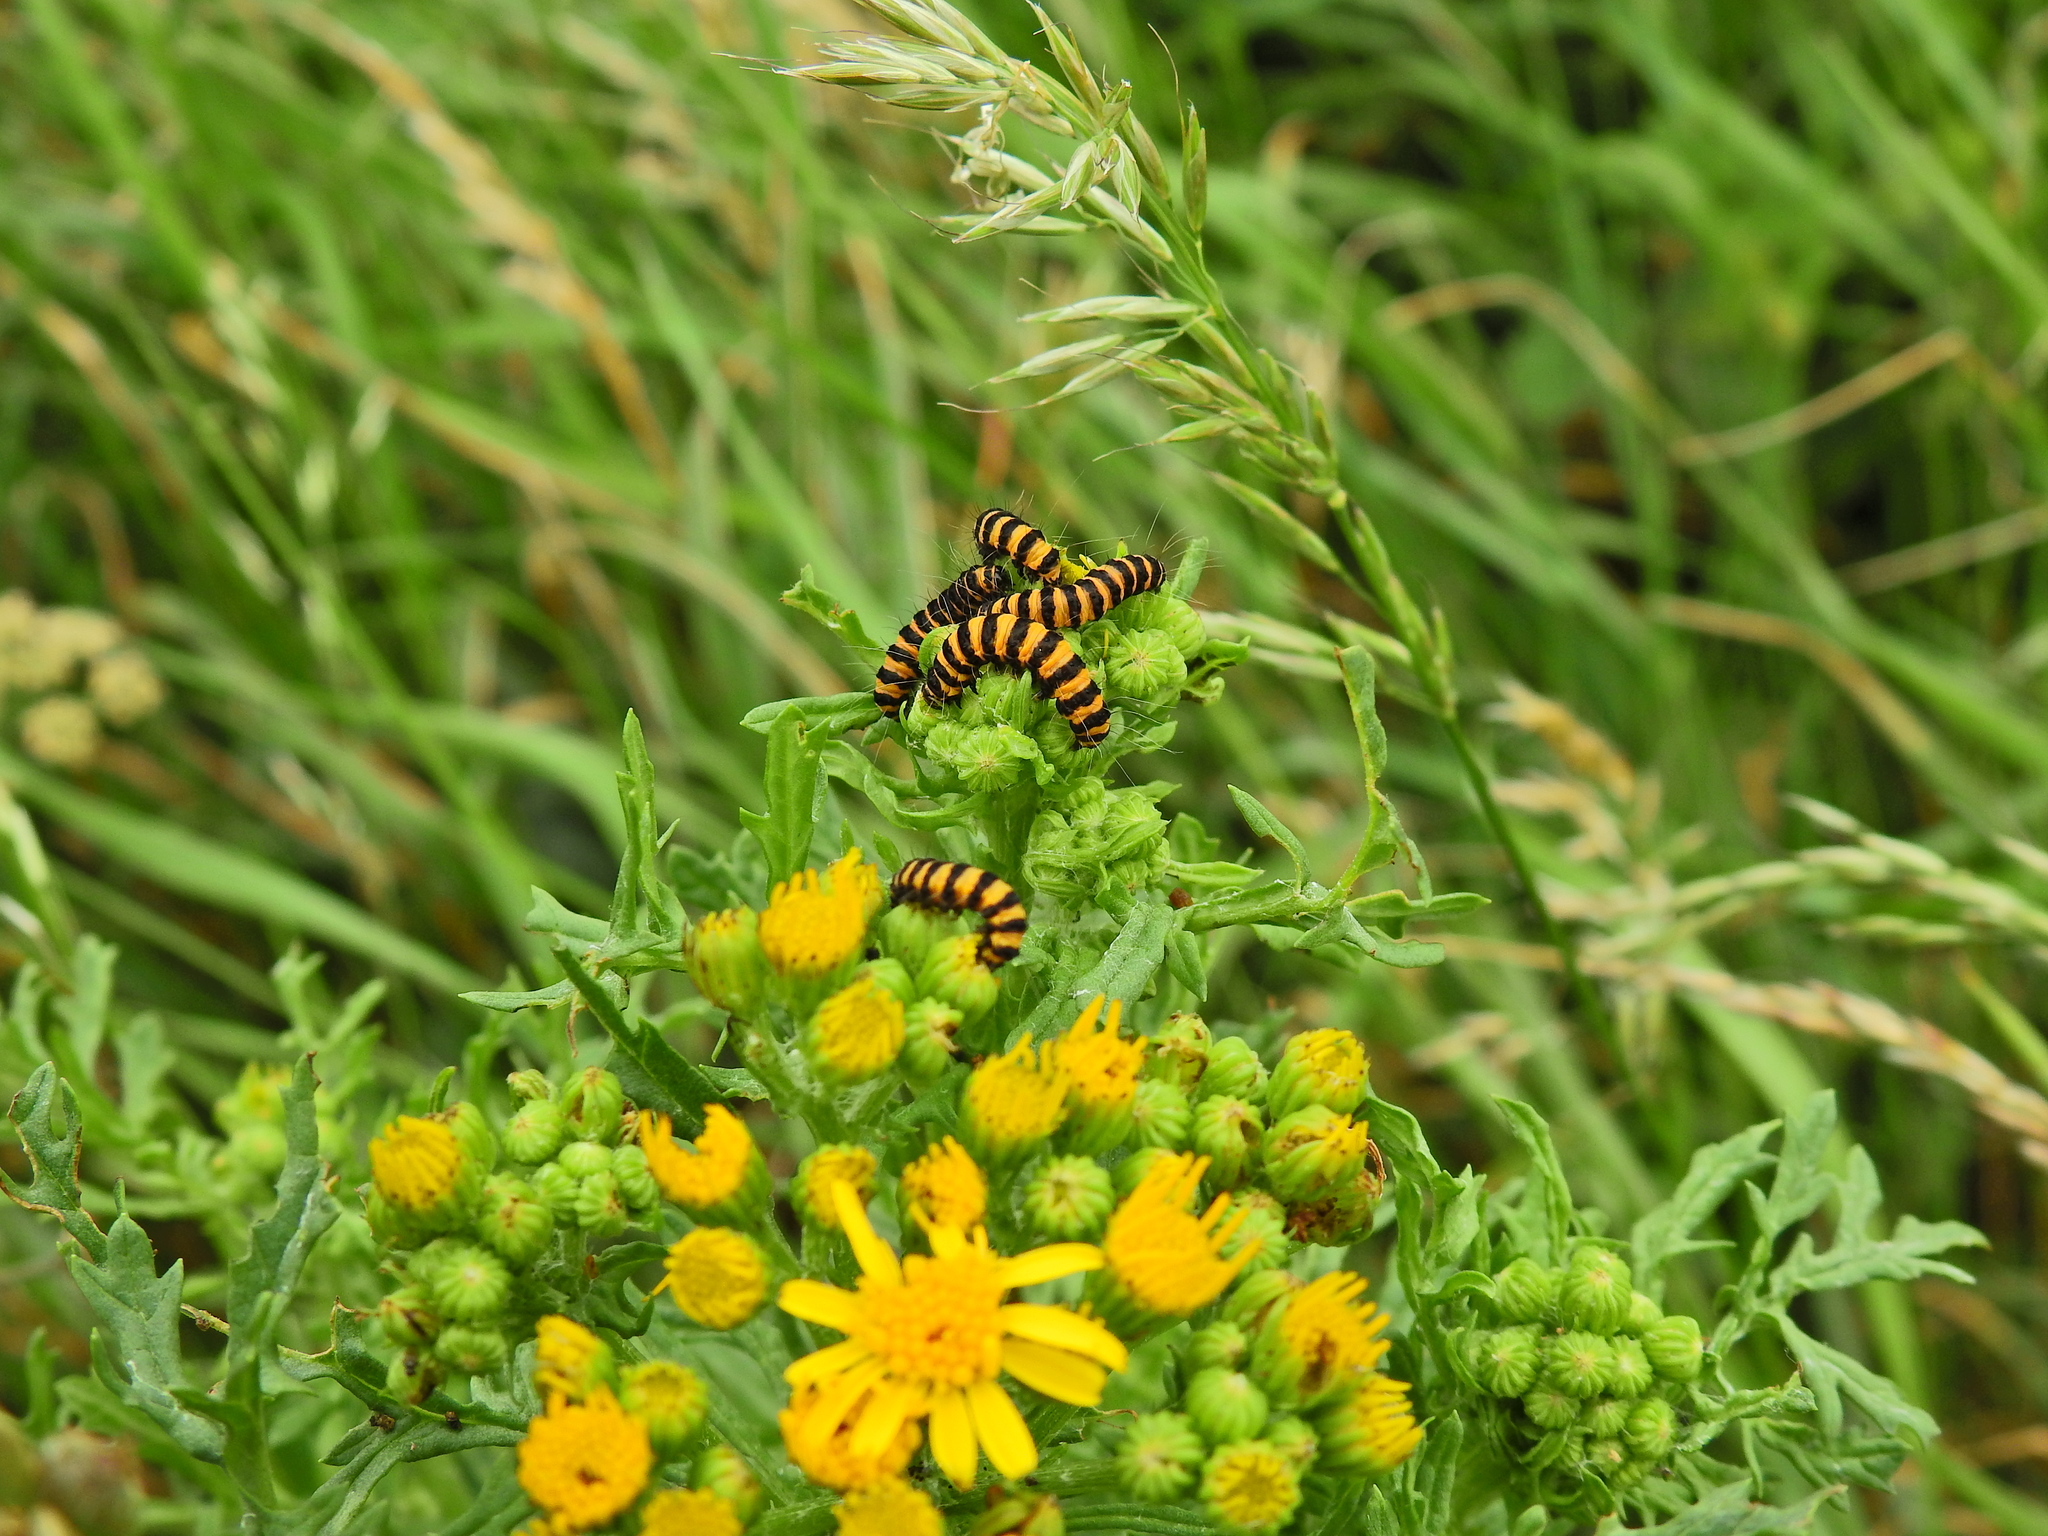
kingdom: Animalia
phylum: Arthropoda
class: Insecta
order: Lepidoptera
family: Erebidae
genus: Tyria
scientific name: Tyria jacobaeae
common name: Cinnabar
